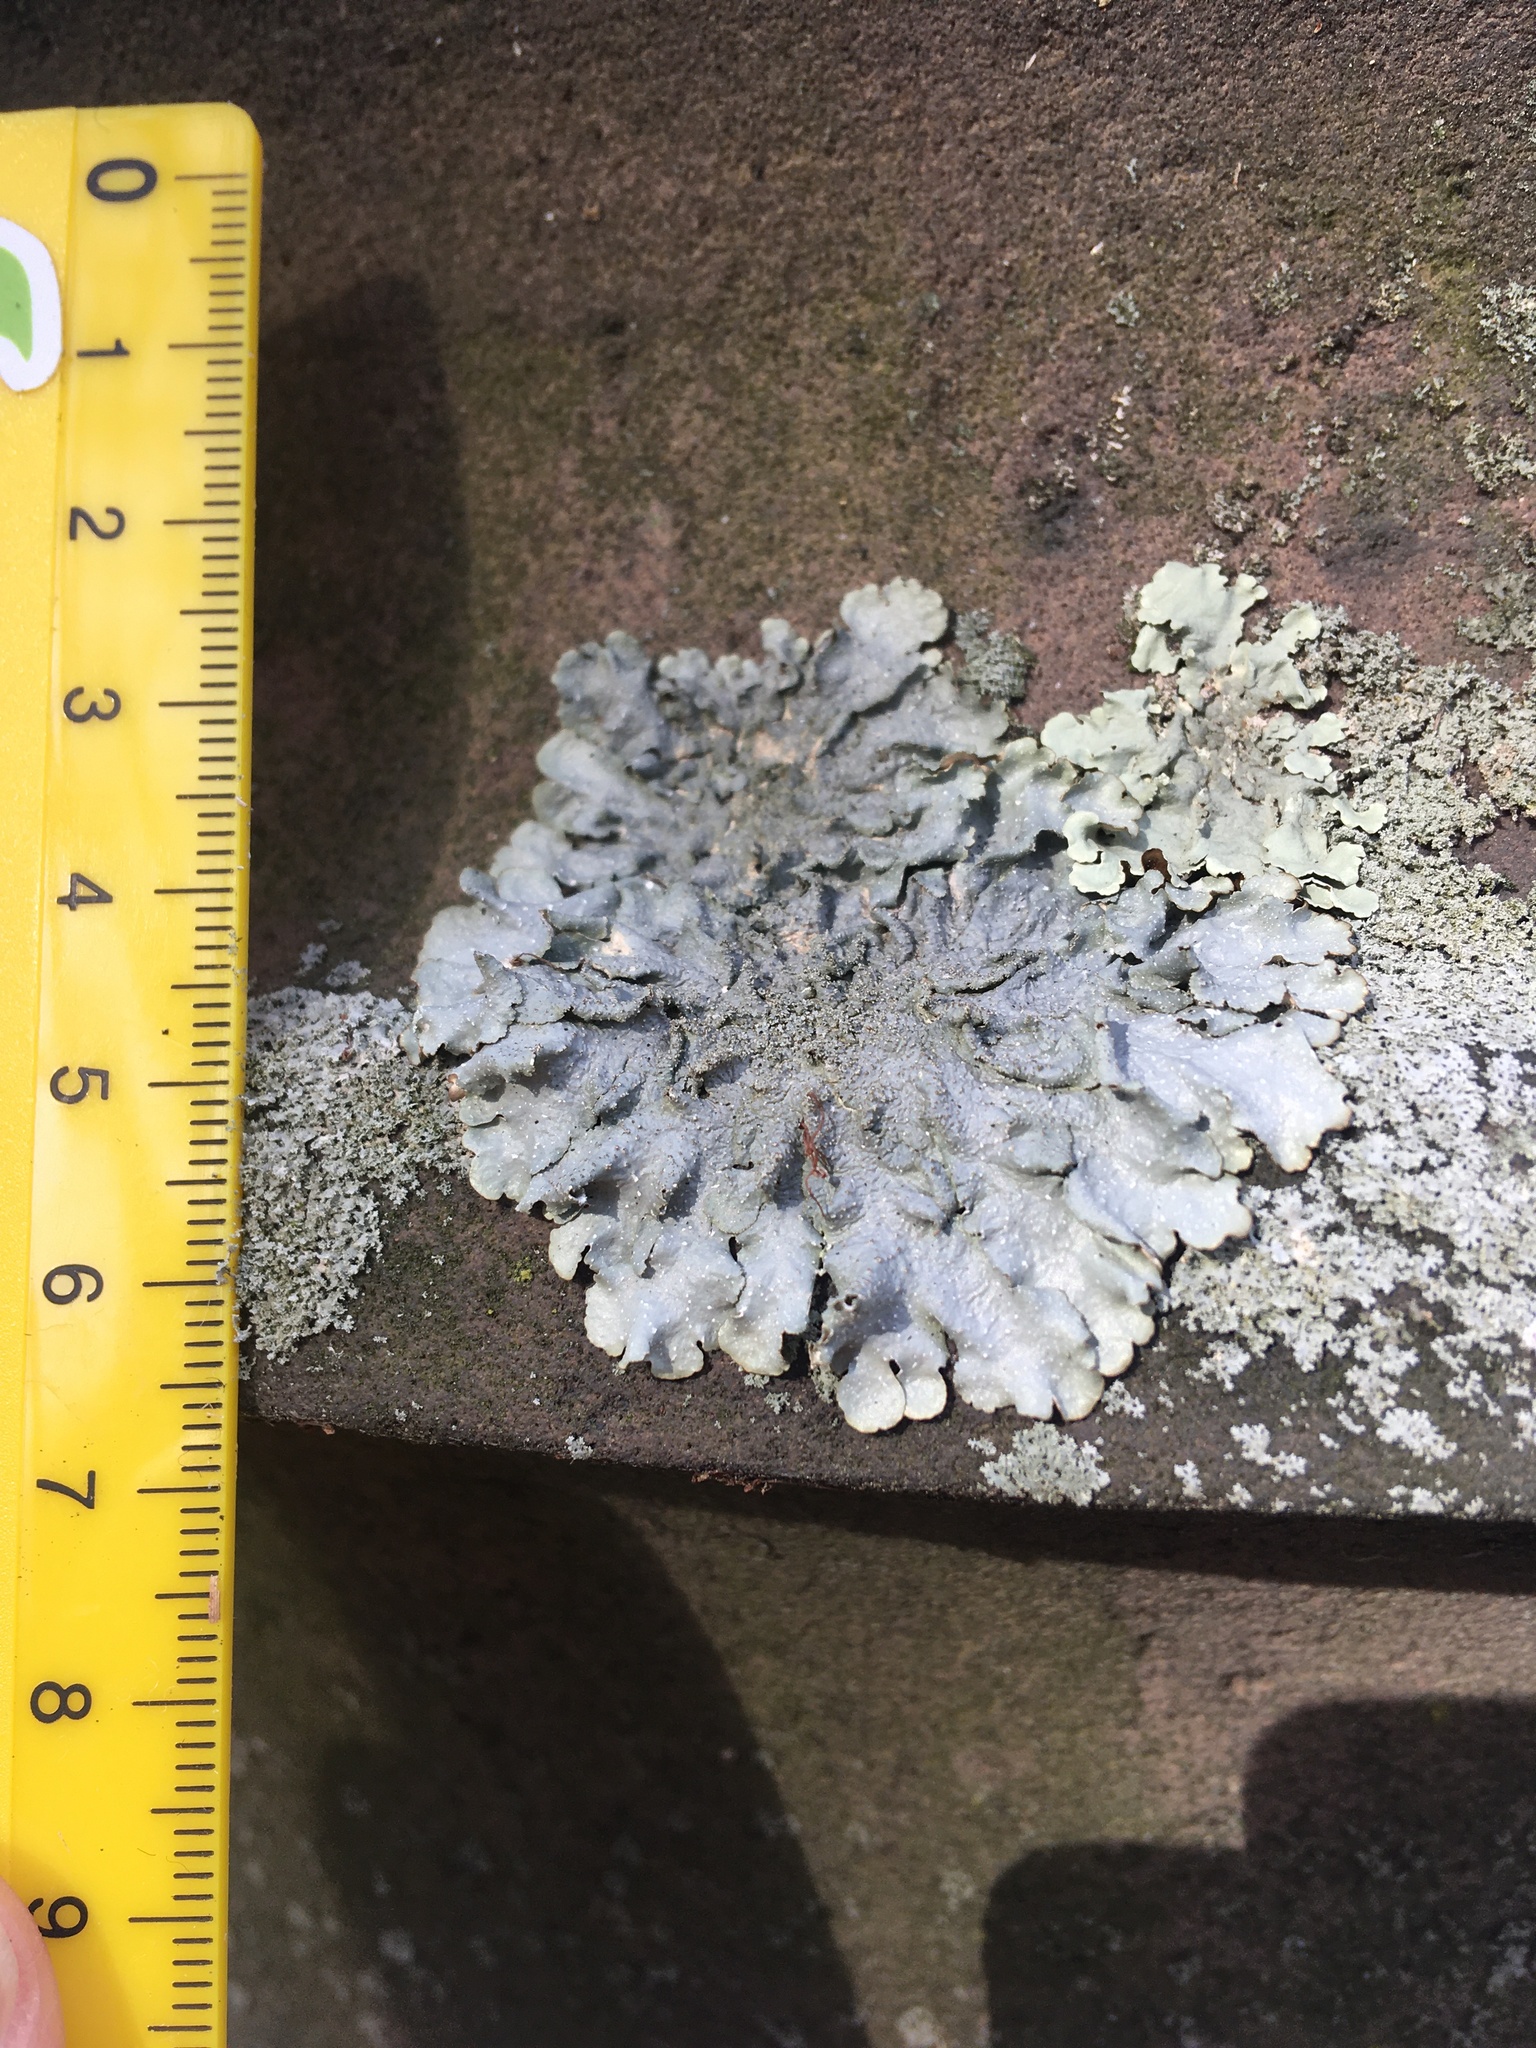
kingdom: Fungi
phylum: Ascomycota
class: Lecanoromycetes
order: Lecanorales
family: Parmeliaceae
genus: Punctelia
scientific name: Punctelia rudecta
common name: Rough speckled shield lichen
